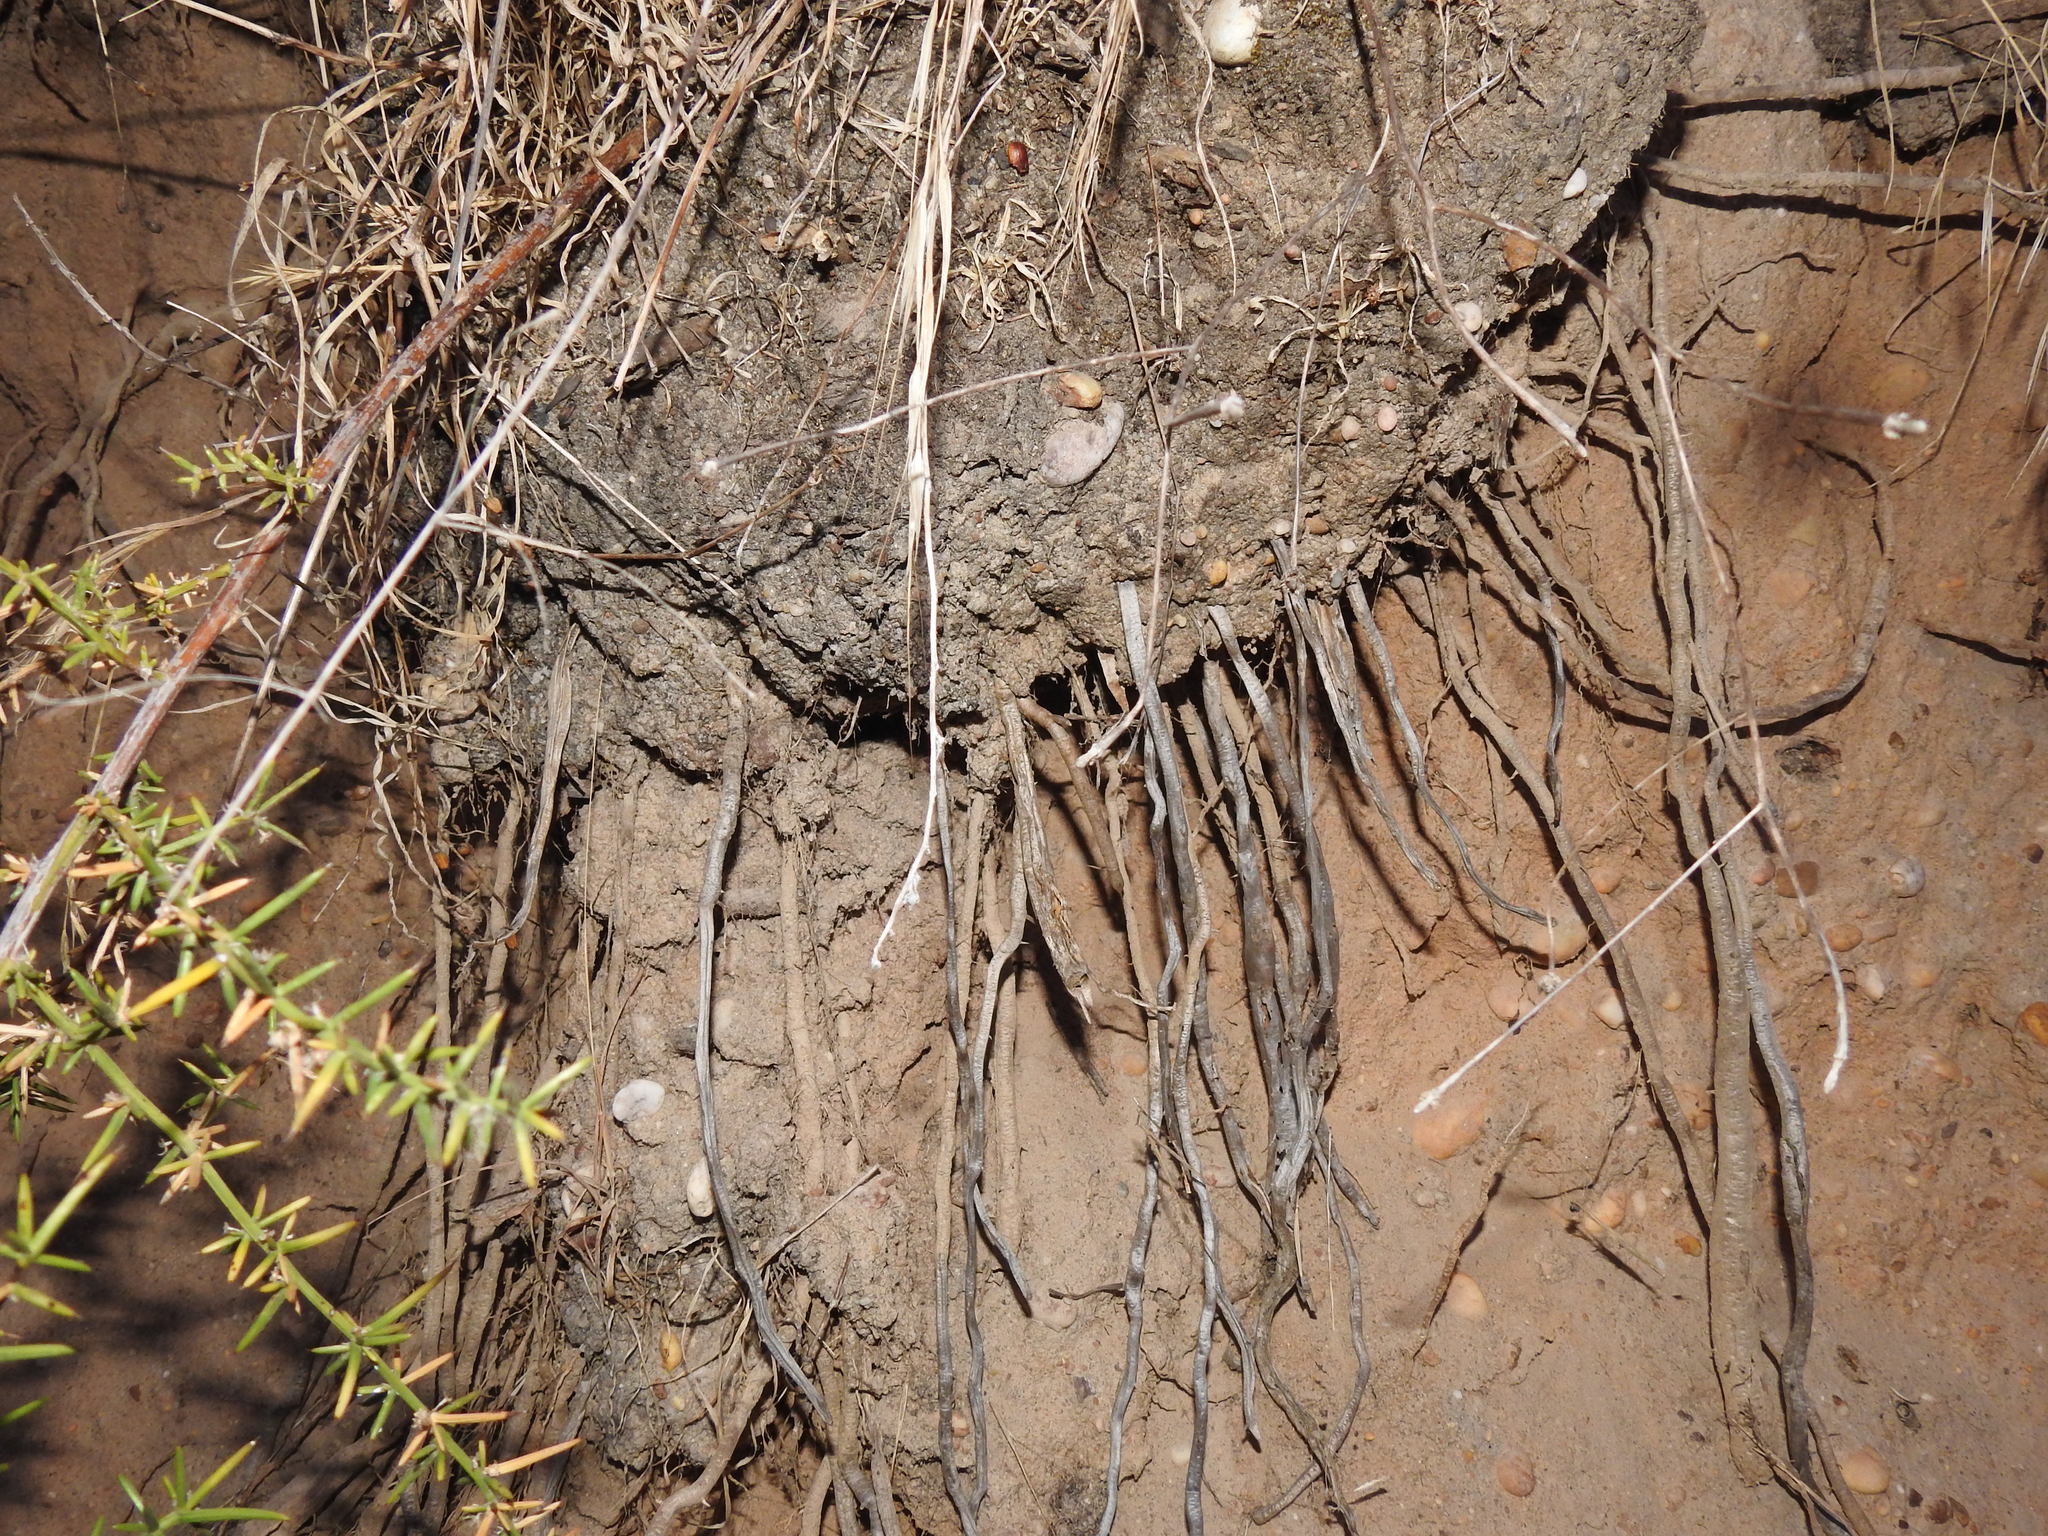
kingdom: Plantae
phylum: Tracheophyta
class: Liliopsida
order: Asparagales
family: Asparagaceae
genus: Asparagus
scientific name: Asparagus aphyllus
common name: Mediterranean asparagus
